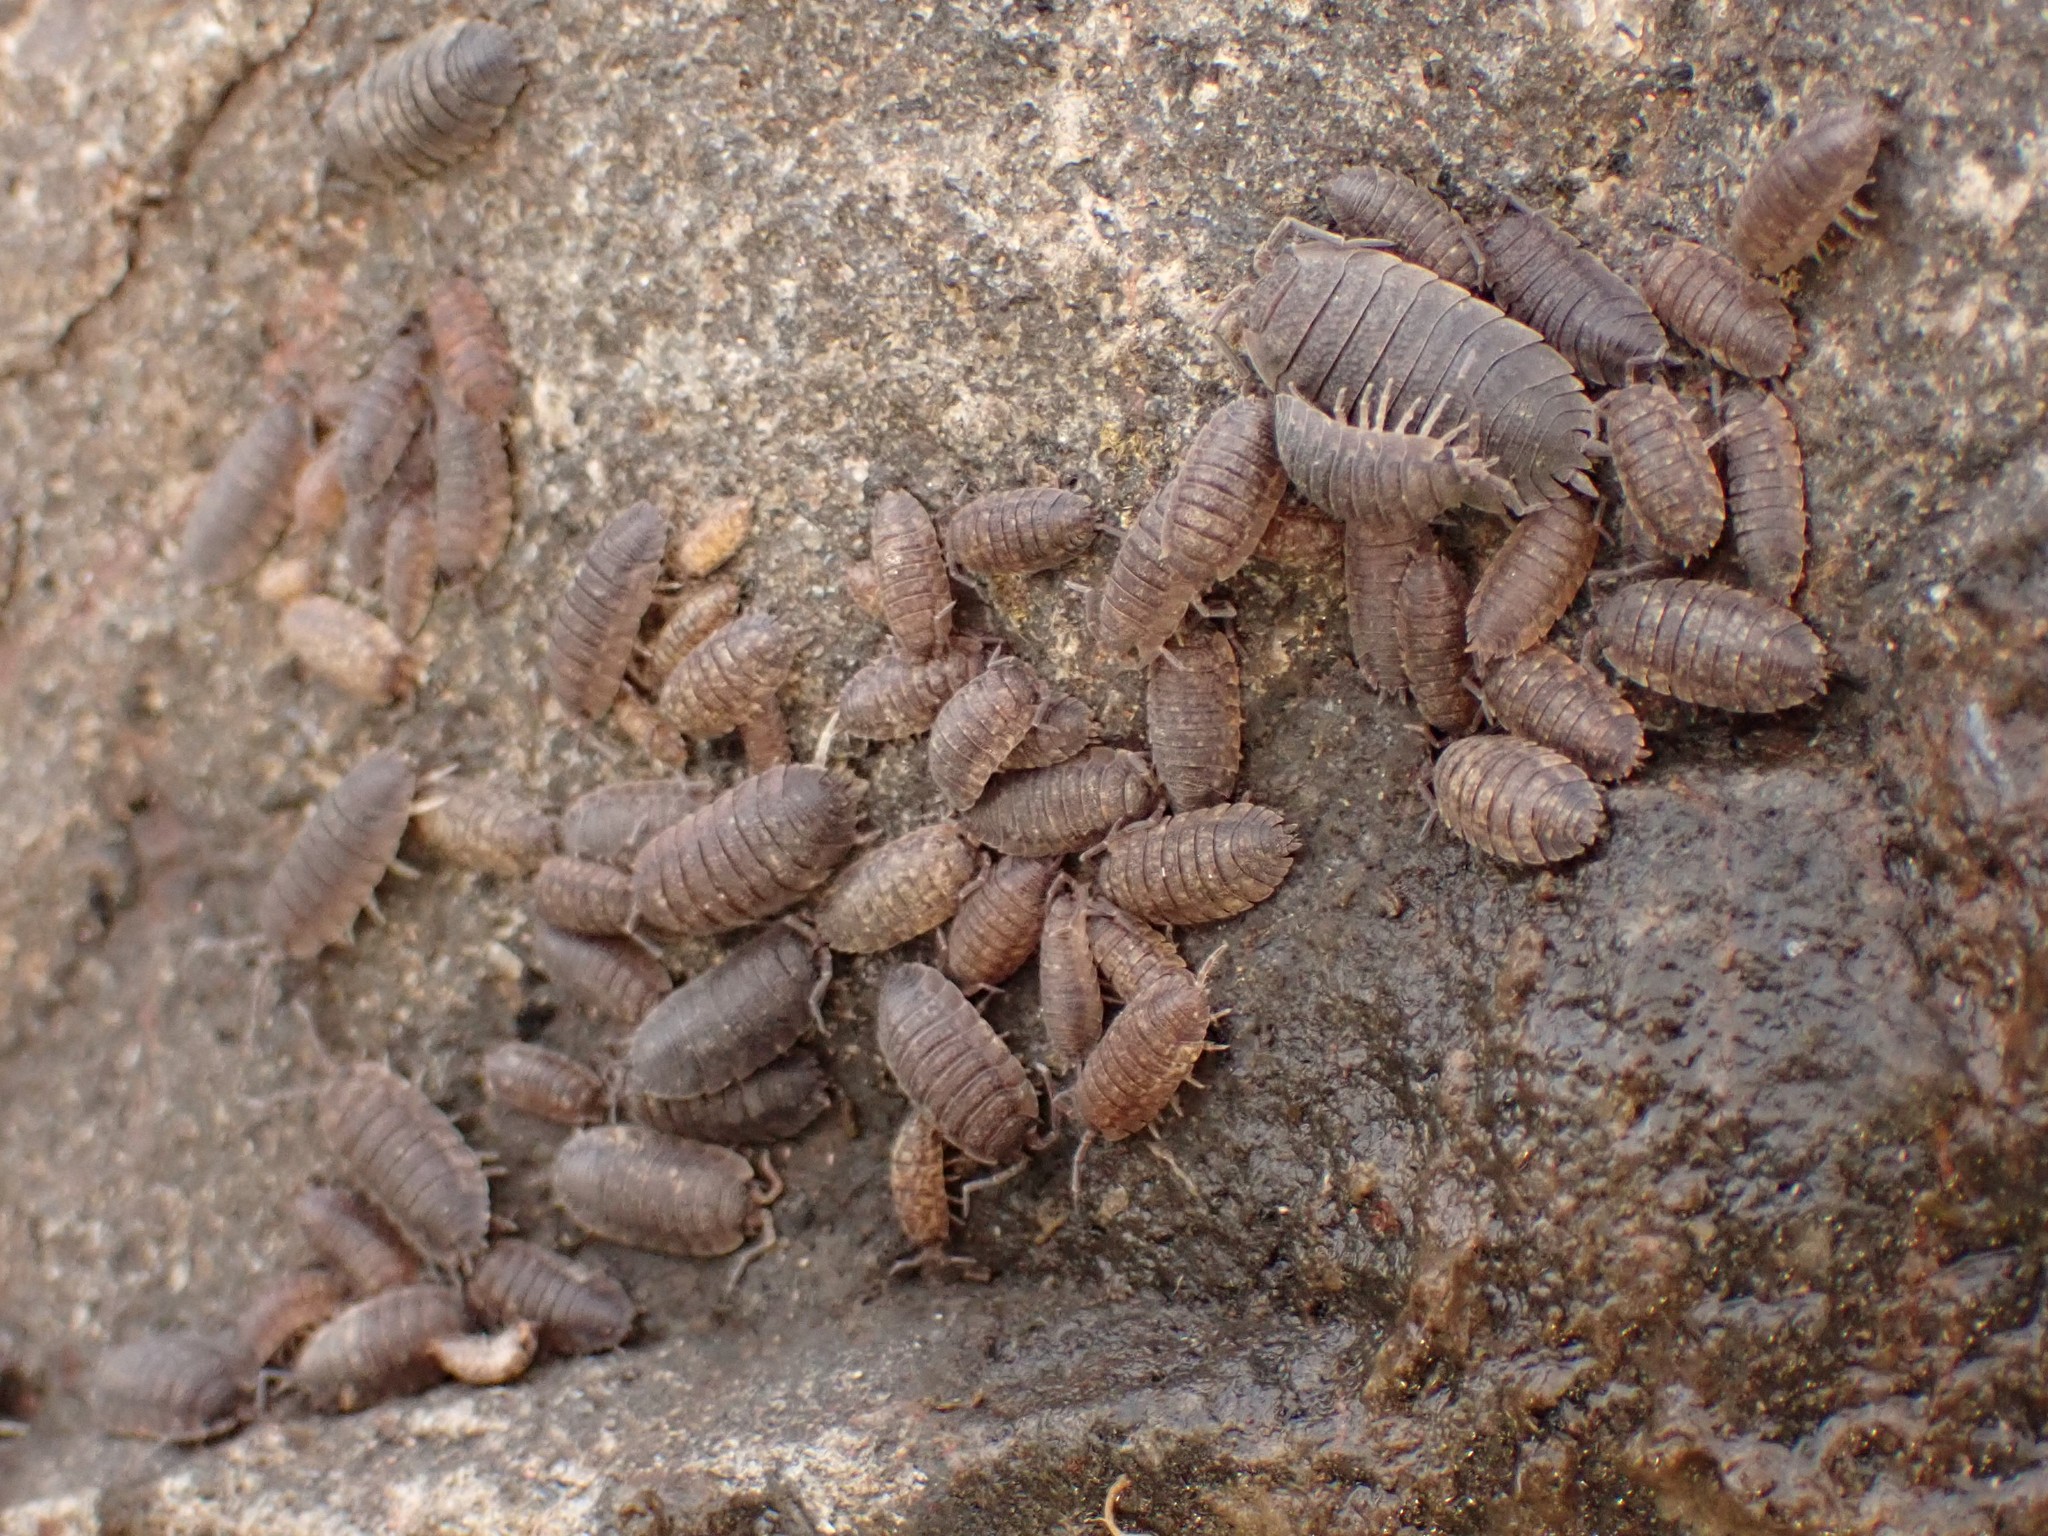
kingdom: Animalia
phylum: Arthropoda
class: Malacostraca
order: Isopoda
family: Porcellionidae
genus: Porcellio
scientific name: Porcellio scaber
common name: Common rough woodlouse
